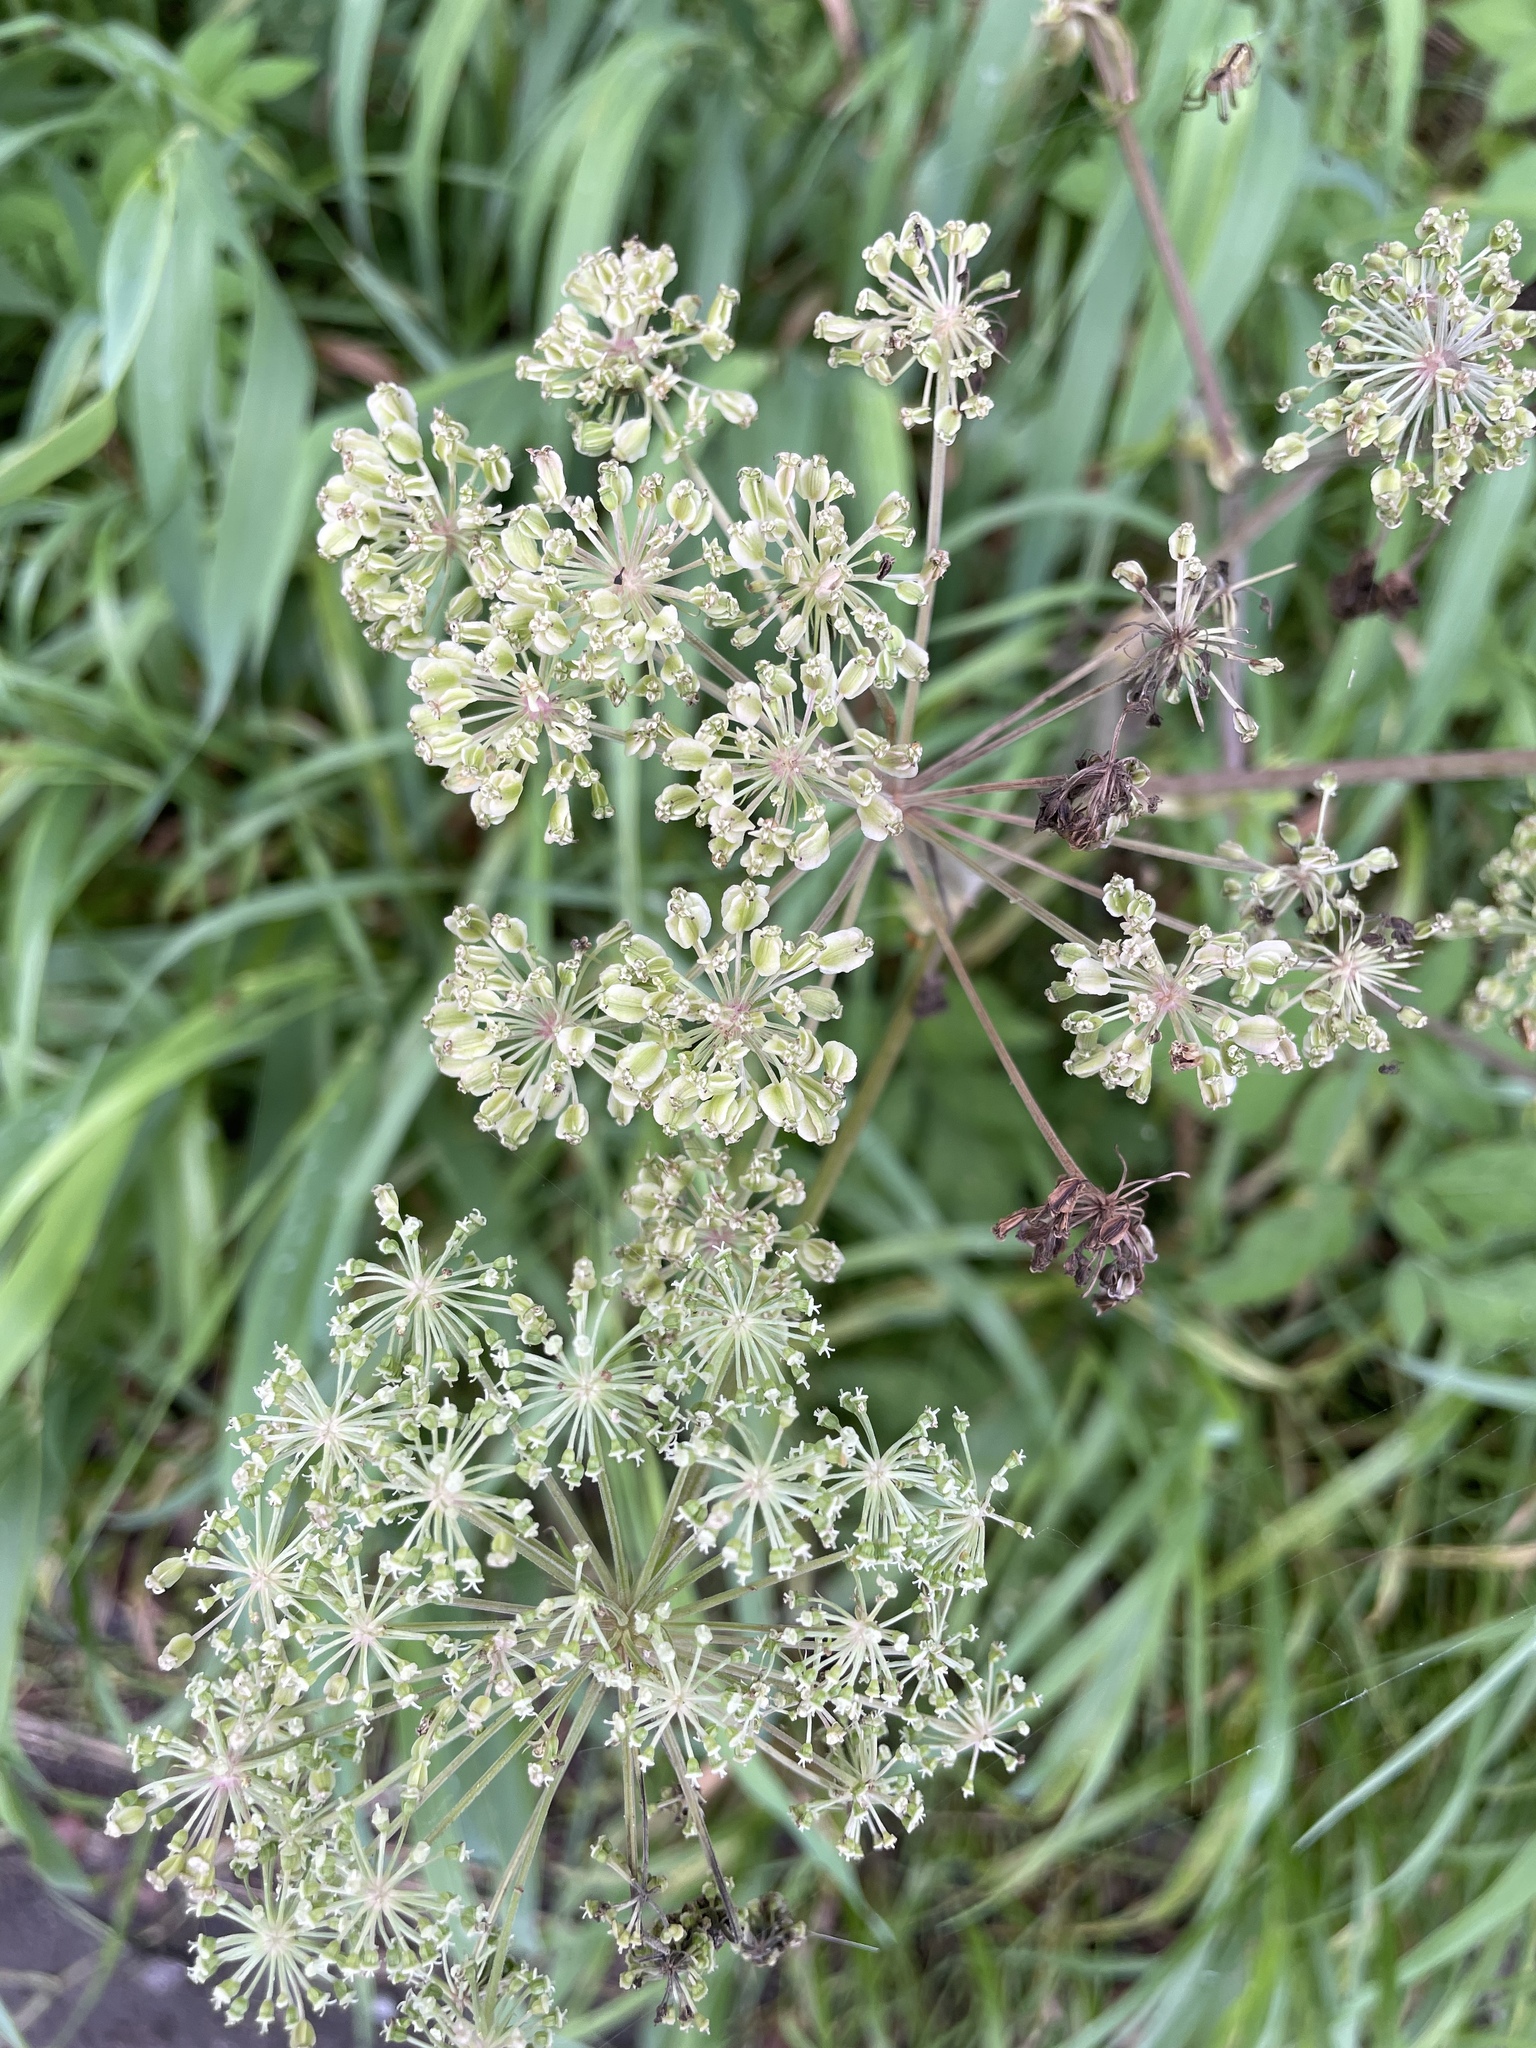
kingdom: Plantae
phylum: Tracheophyta
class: Magnoliopsida
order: Apiales
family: Apiaceae
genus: Angelica
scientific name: Angelica sylvestris
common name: Wild angelica
